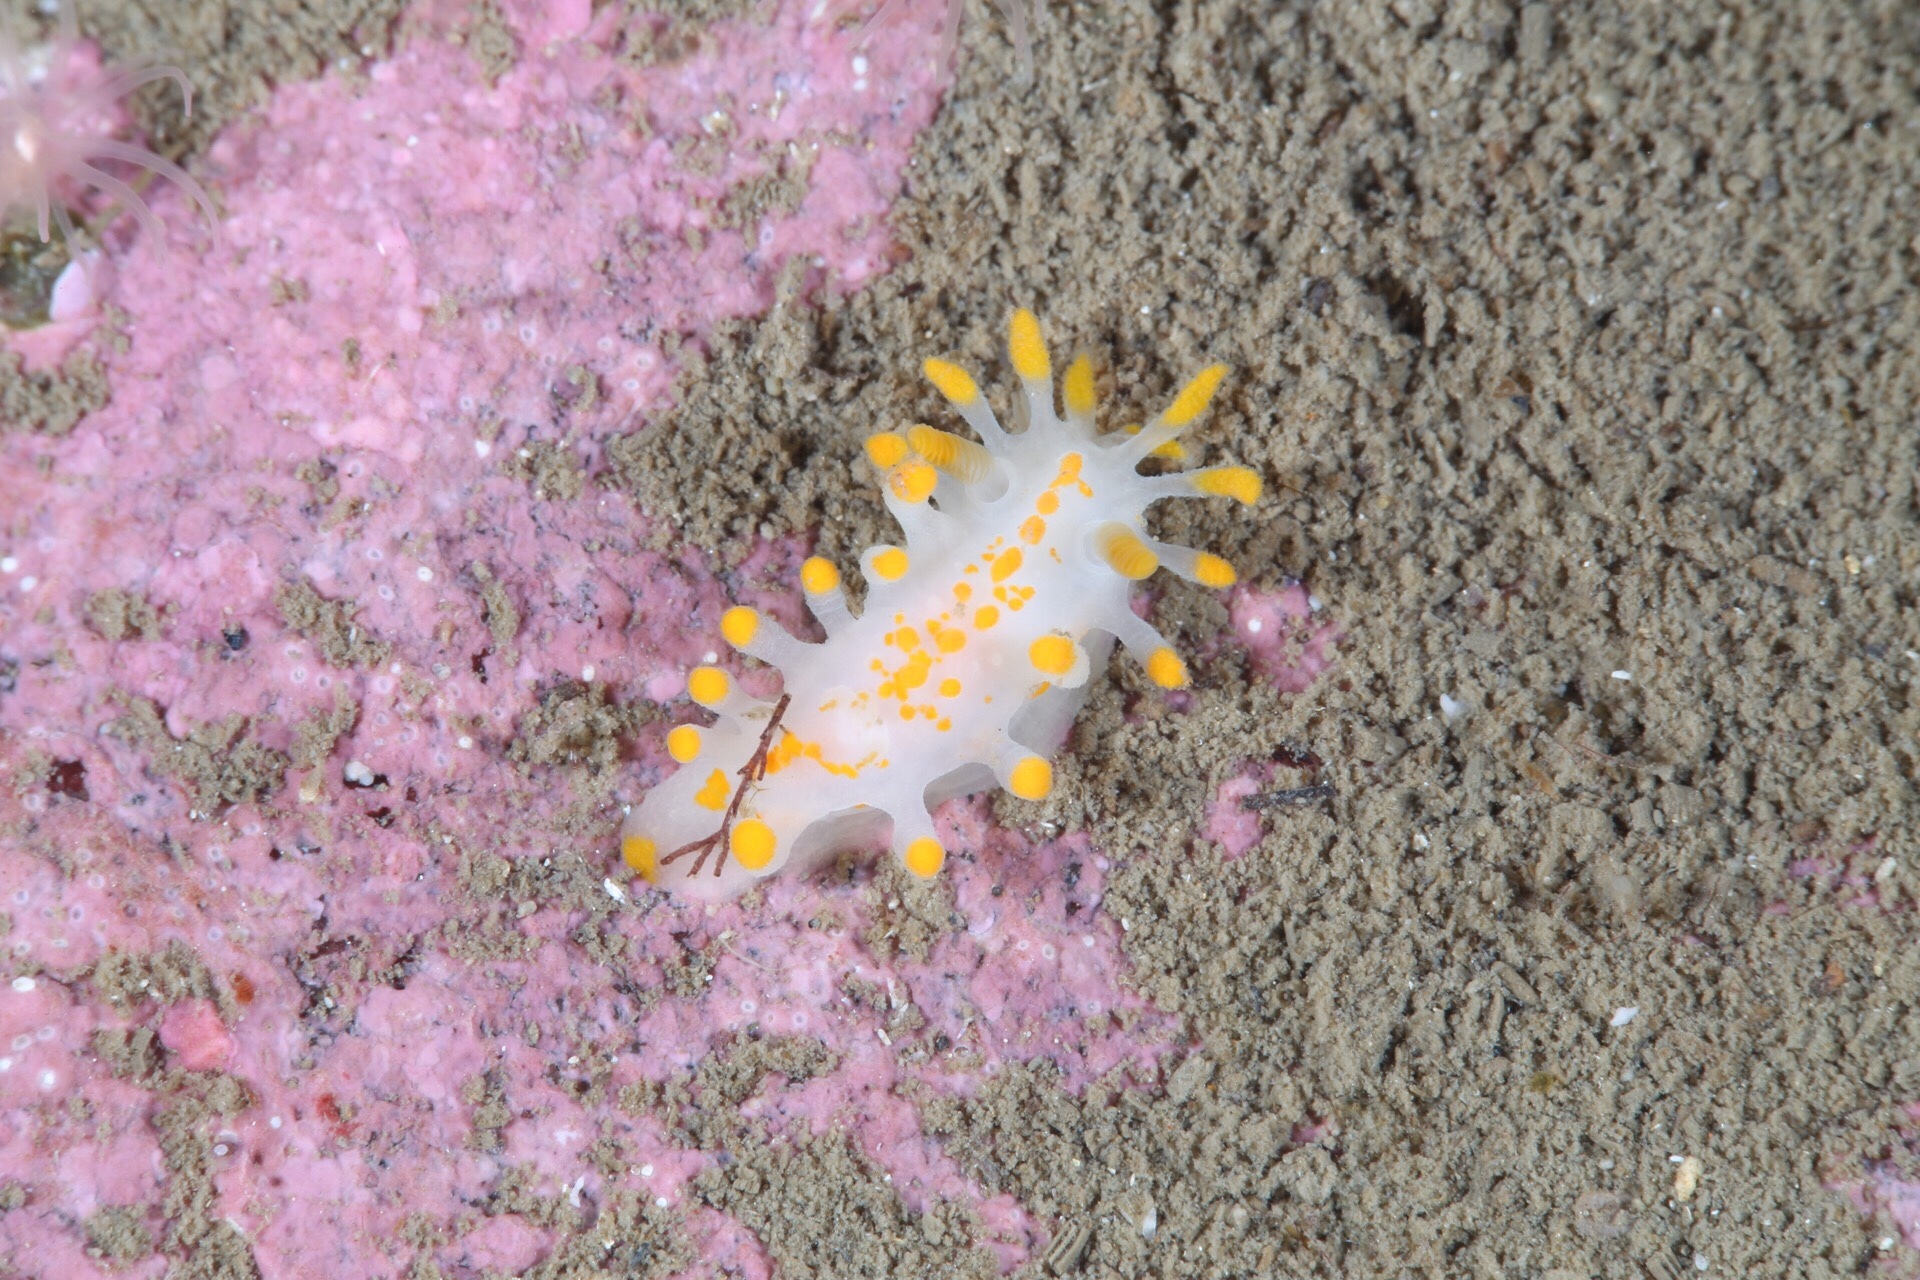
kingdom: Animalia
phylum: Mollusca
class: Gastropoda
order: Nudibranchia
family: Polyceridae
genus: Limacia
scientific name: Limacia clavigera
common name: Orange-clubbed sea slug
